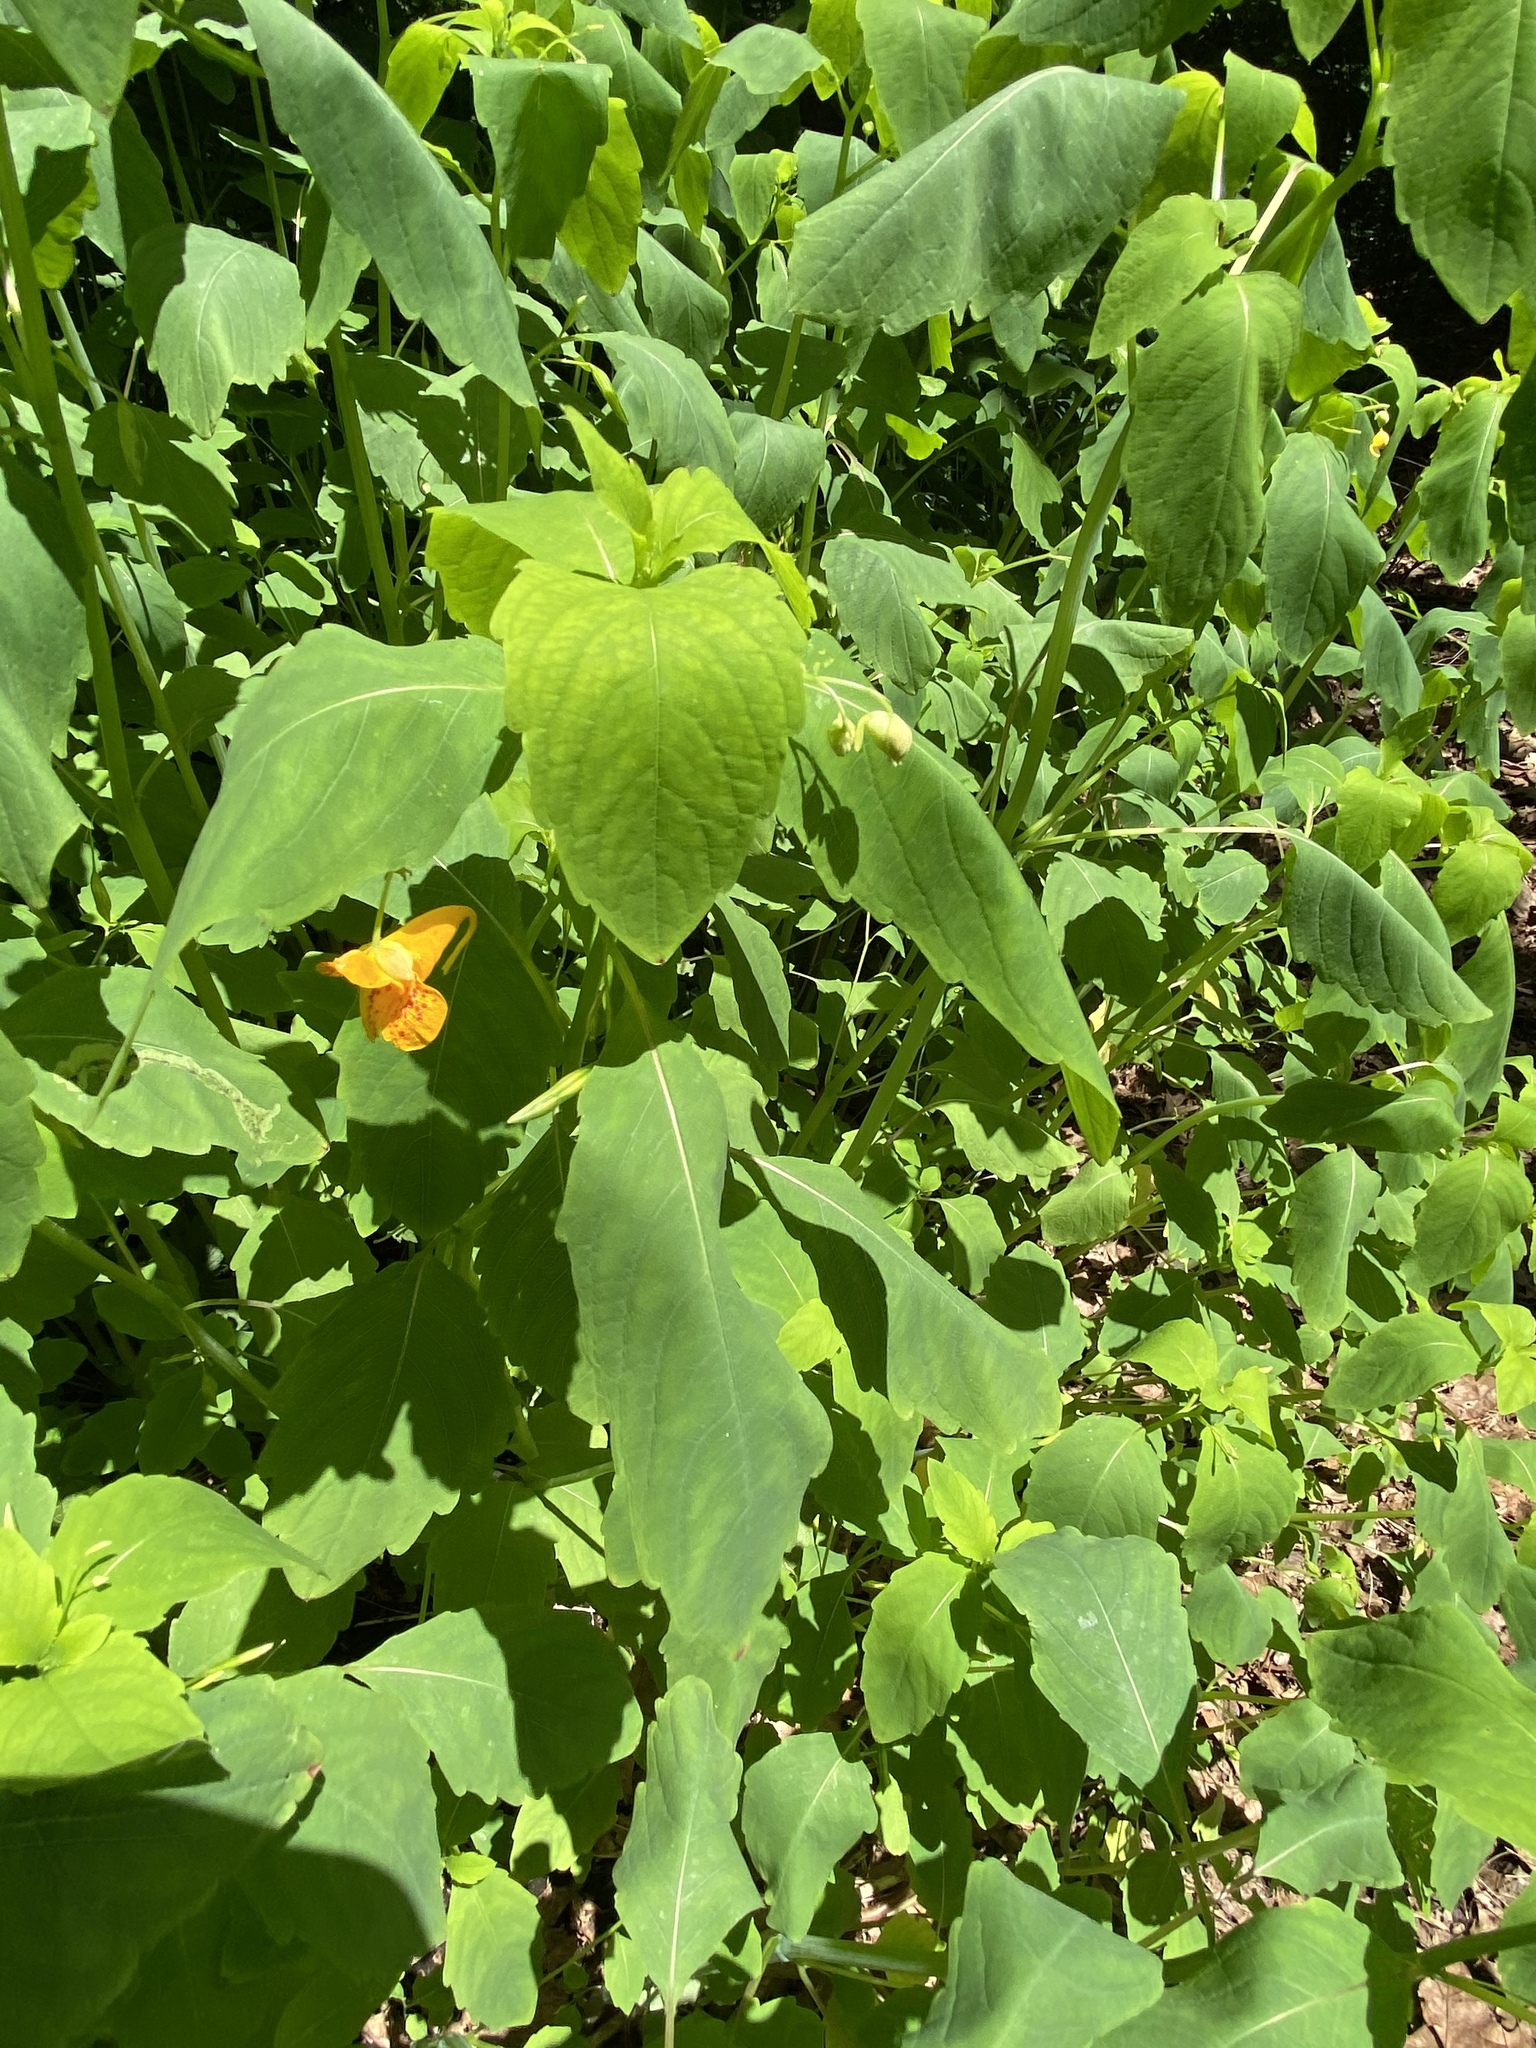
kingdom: Plantae
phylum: Tracheophyta
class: Magnoliopsida
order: Ericales
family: Balsaminaceae
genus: Impatiens
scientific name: Impatiens capensis
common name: Orange balsam
